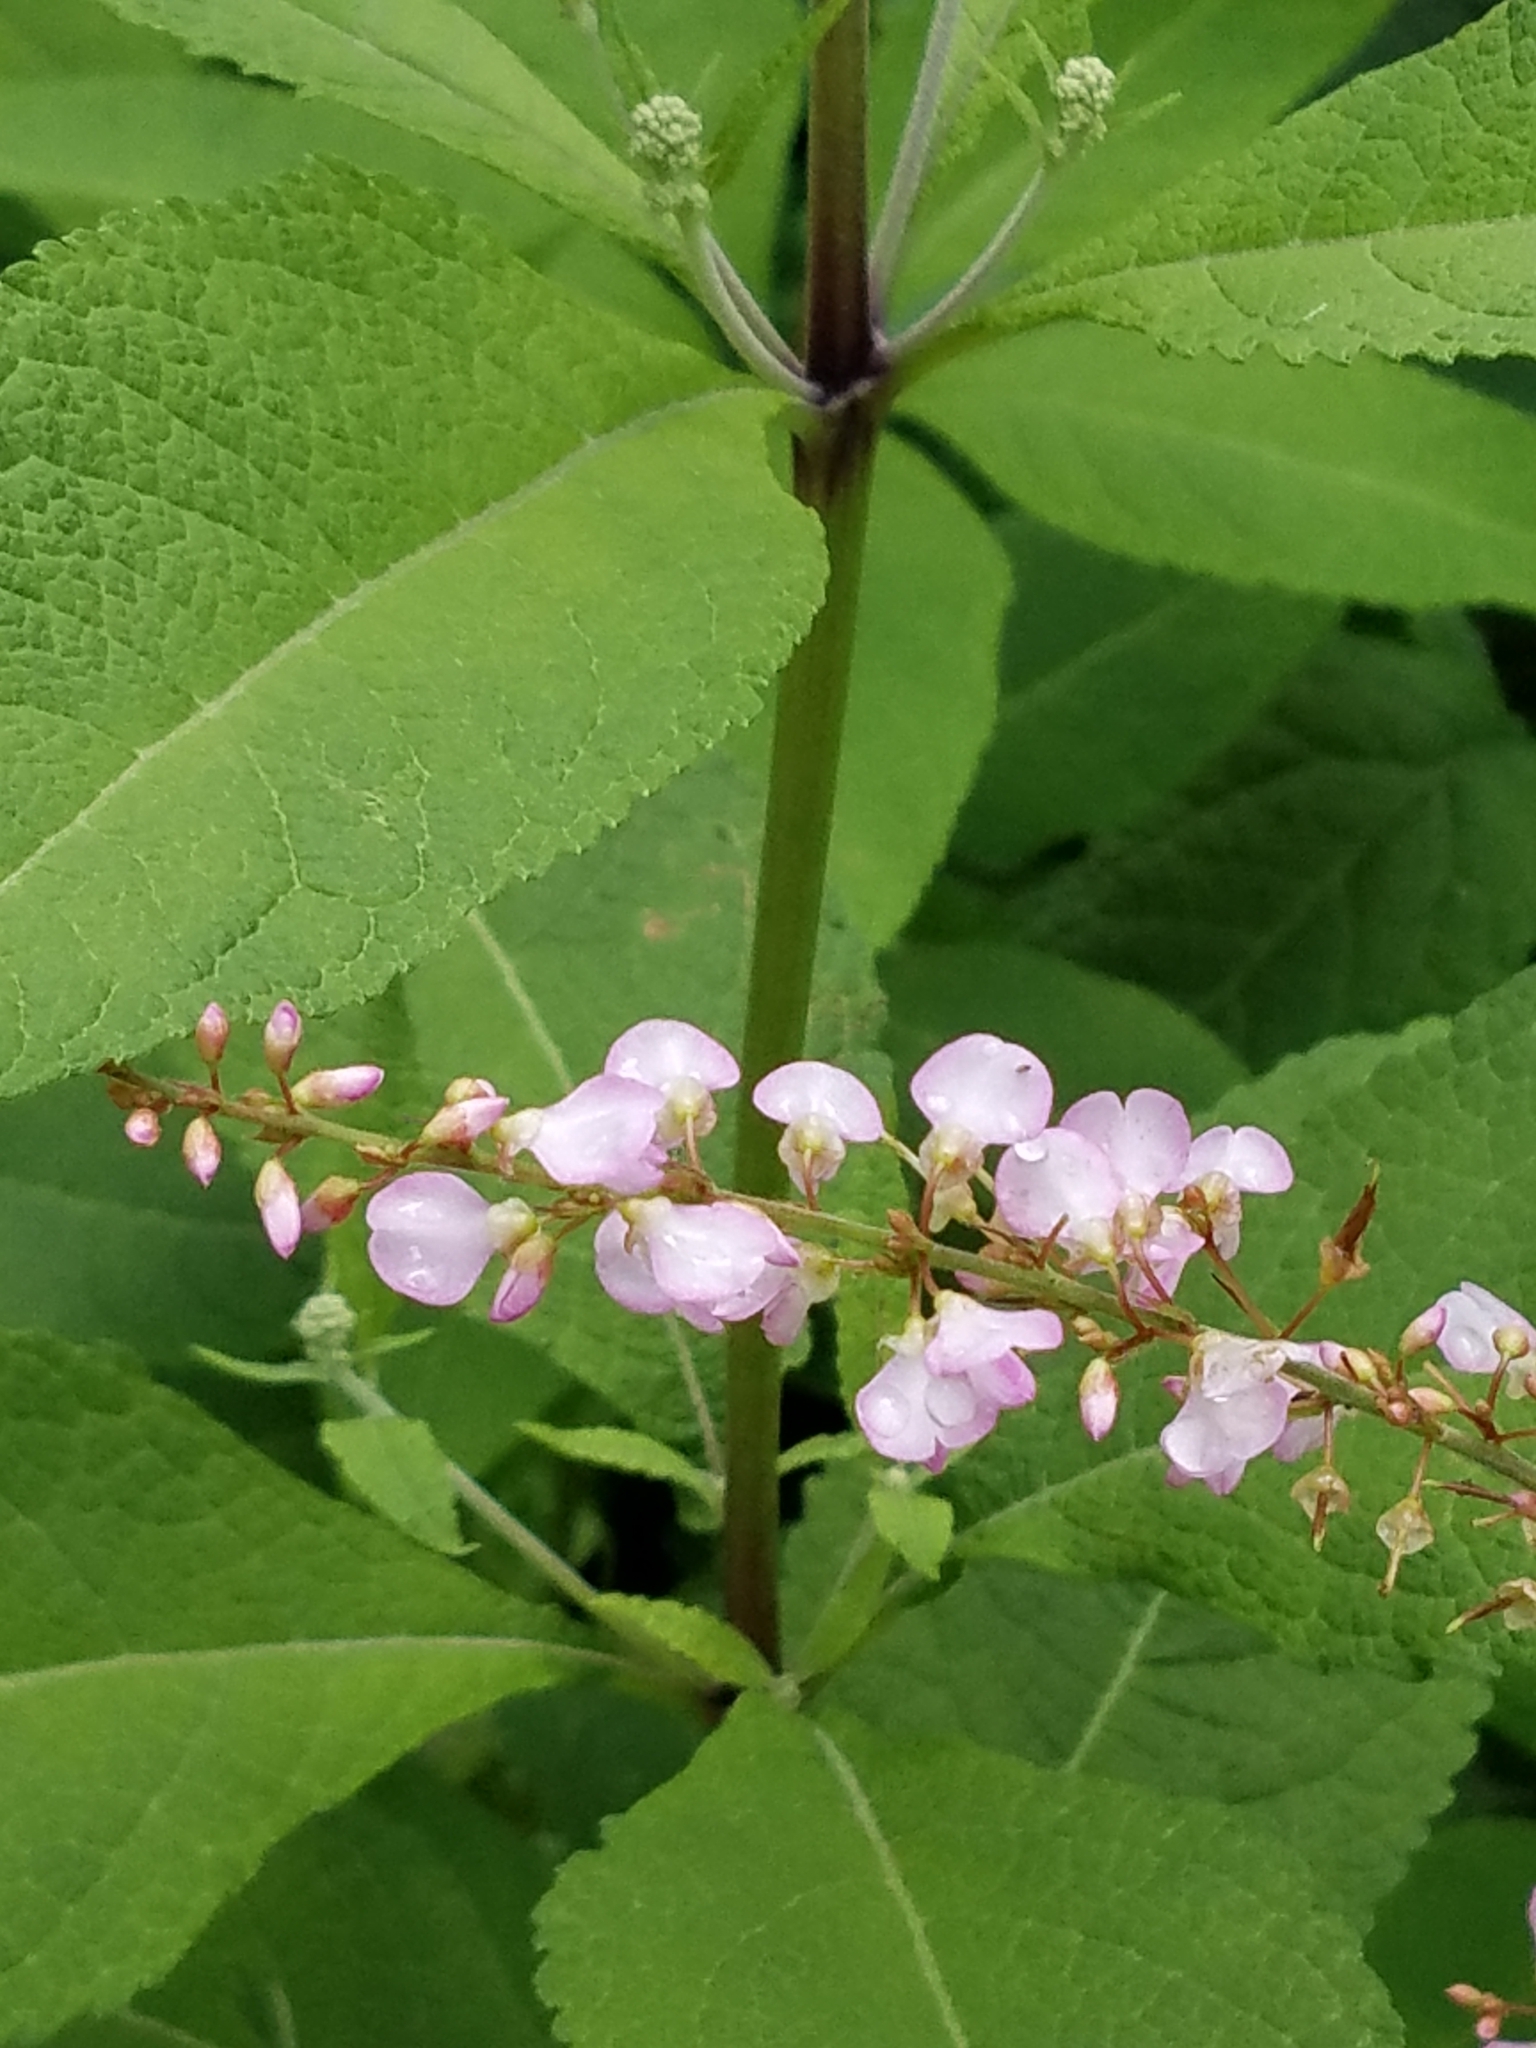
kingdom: Plantae
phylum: Tracheophyta
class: Magnoliopsida
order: Fabales
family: Fabaceae
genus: Hylodesmum
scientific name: Hylodesmum glutinosum
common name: Clustered-leaved tick-trefoil
